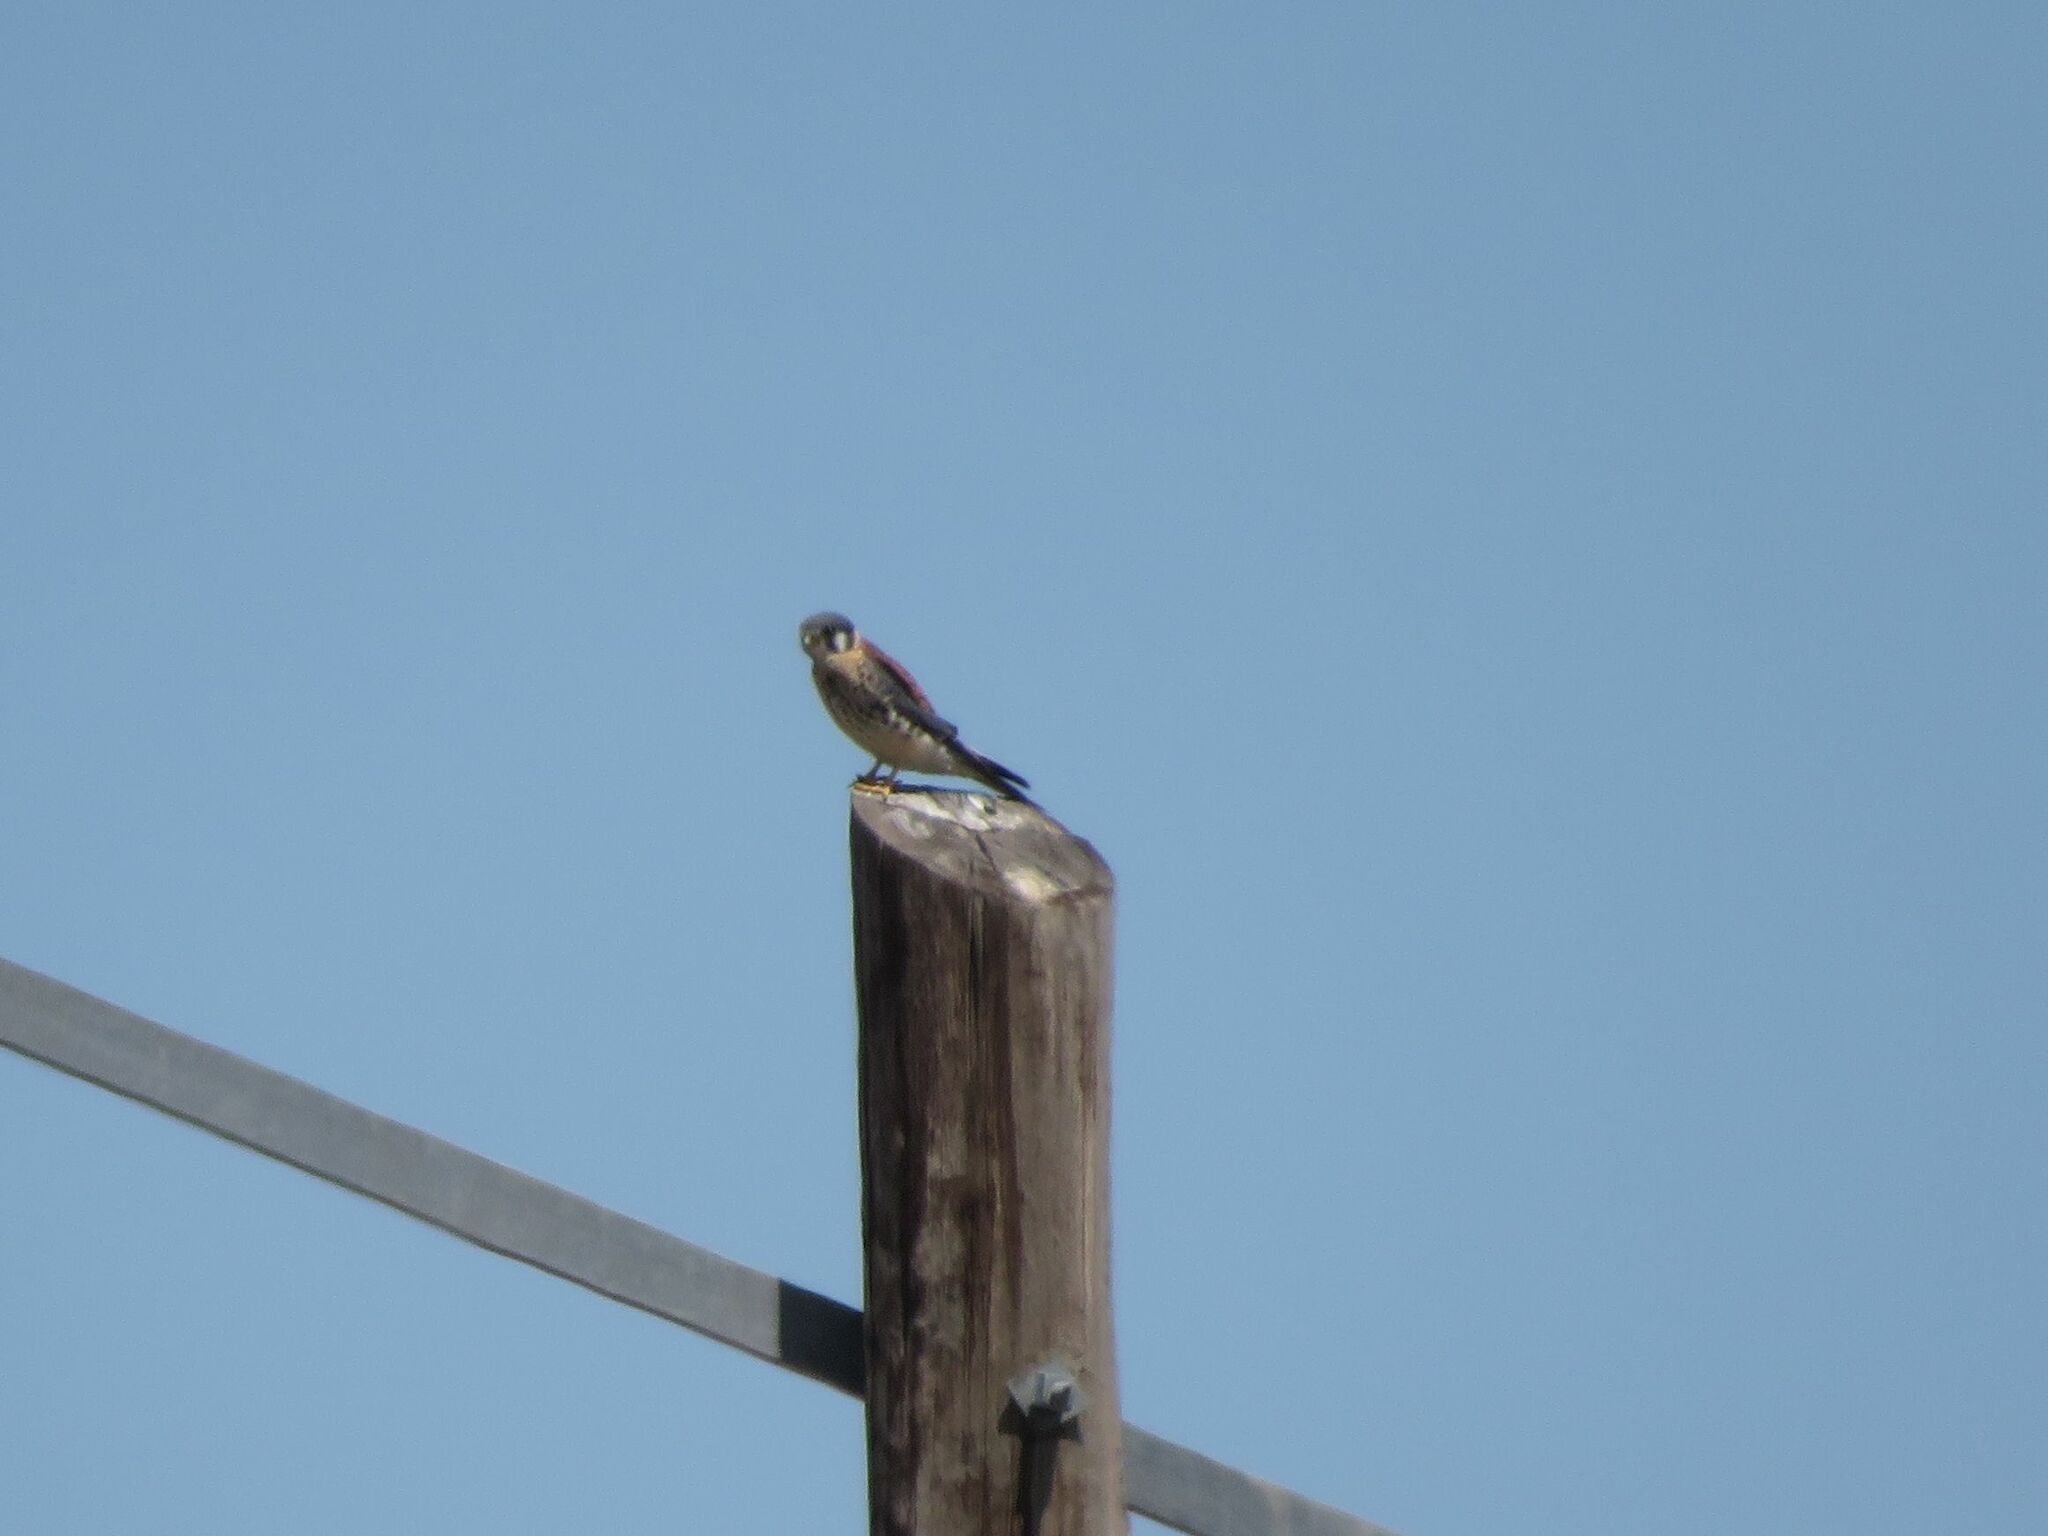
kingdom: Animalia
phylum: Chordata
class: Aves
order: Falconiformes
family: Falconidae
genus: Falco
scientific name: Falco sparverius
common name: American kestrel
